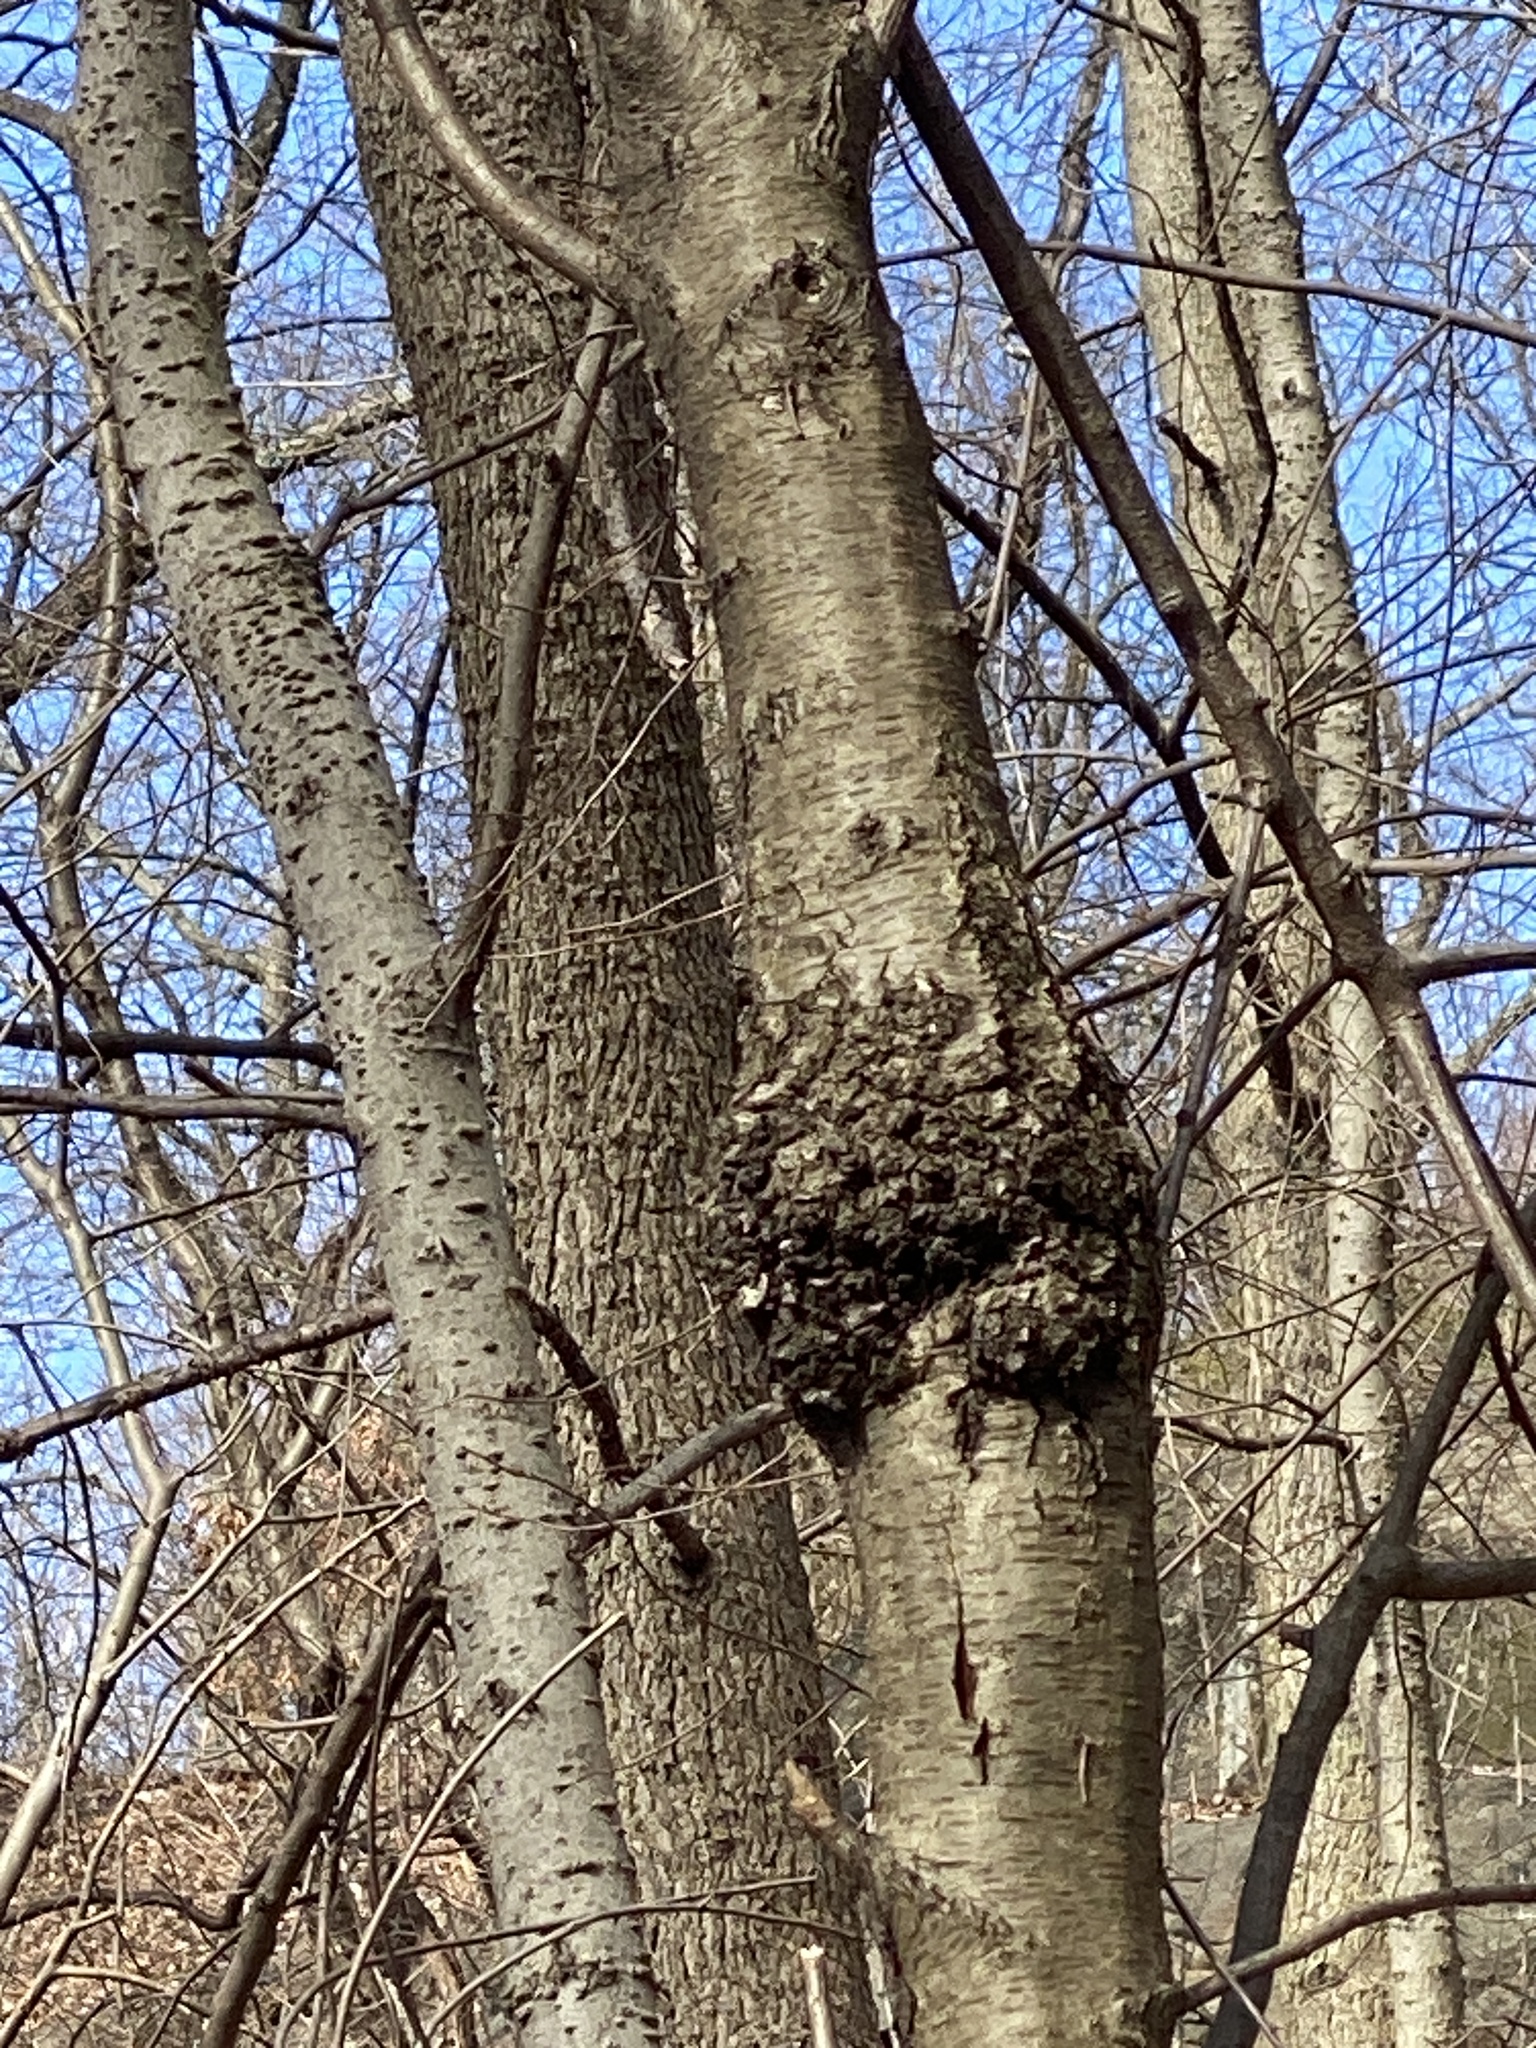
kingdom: Bacteria
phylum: Proteobacteria
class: Alphaproteobacteria
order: Rhizobiales
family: Rhizobiaceae
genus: Rhizobium
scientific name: Rhizobium Agrobacterium radiobacter
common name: Bacterial crown gall
